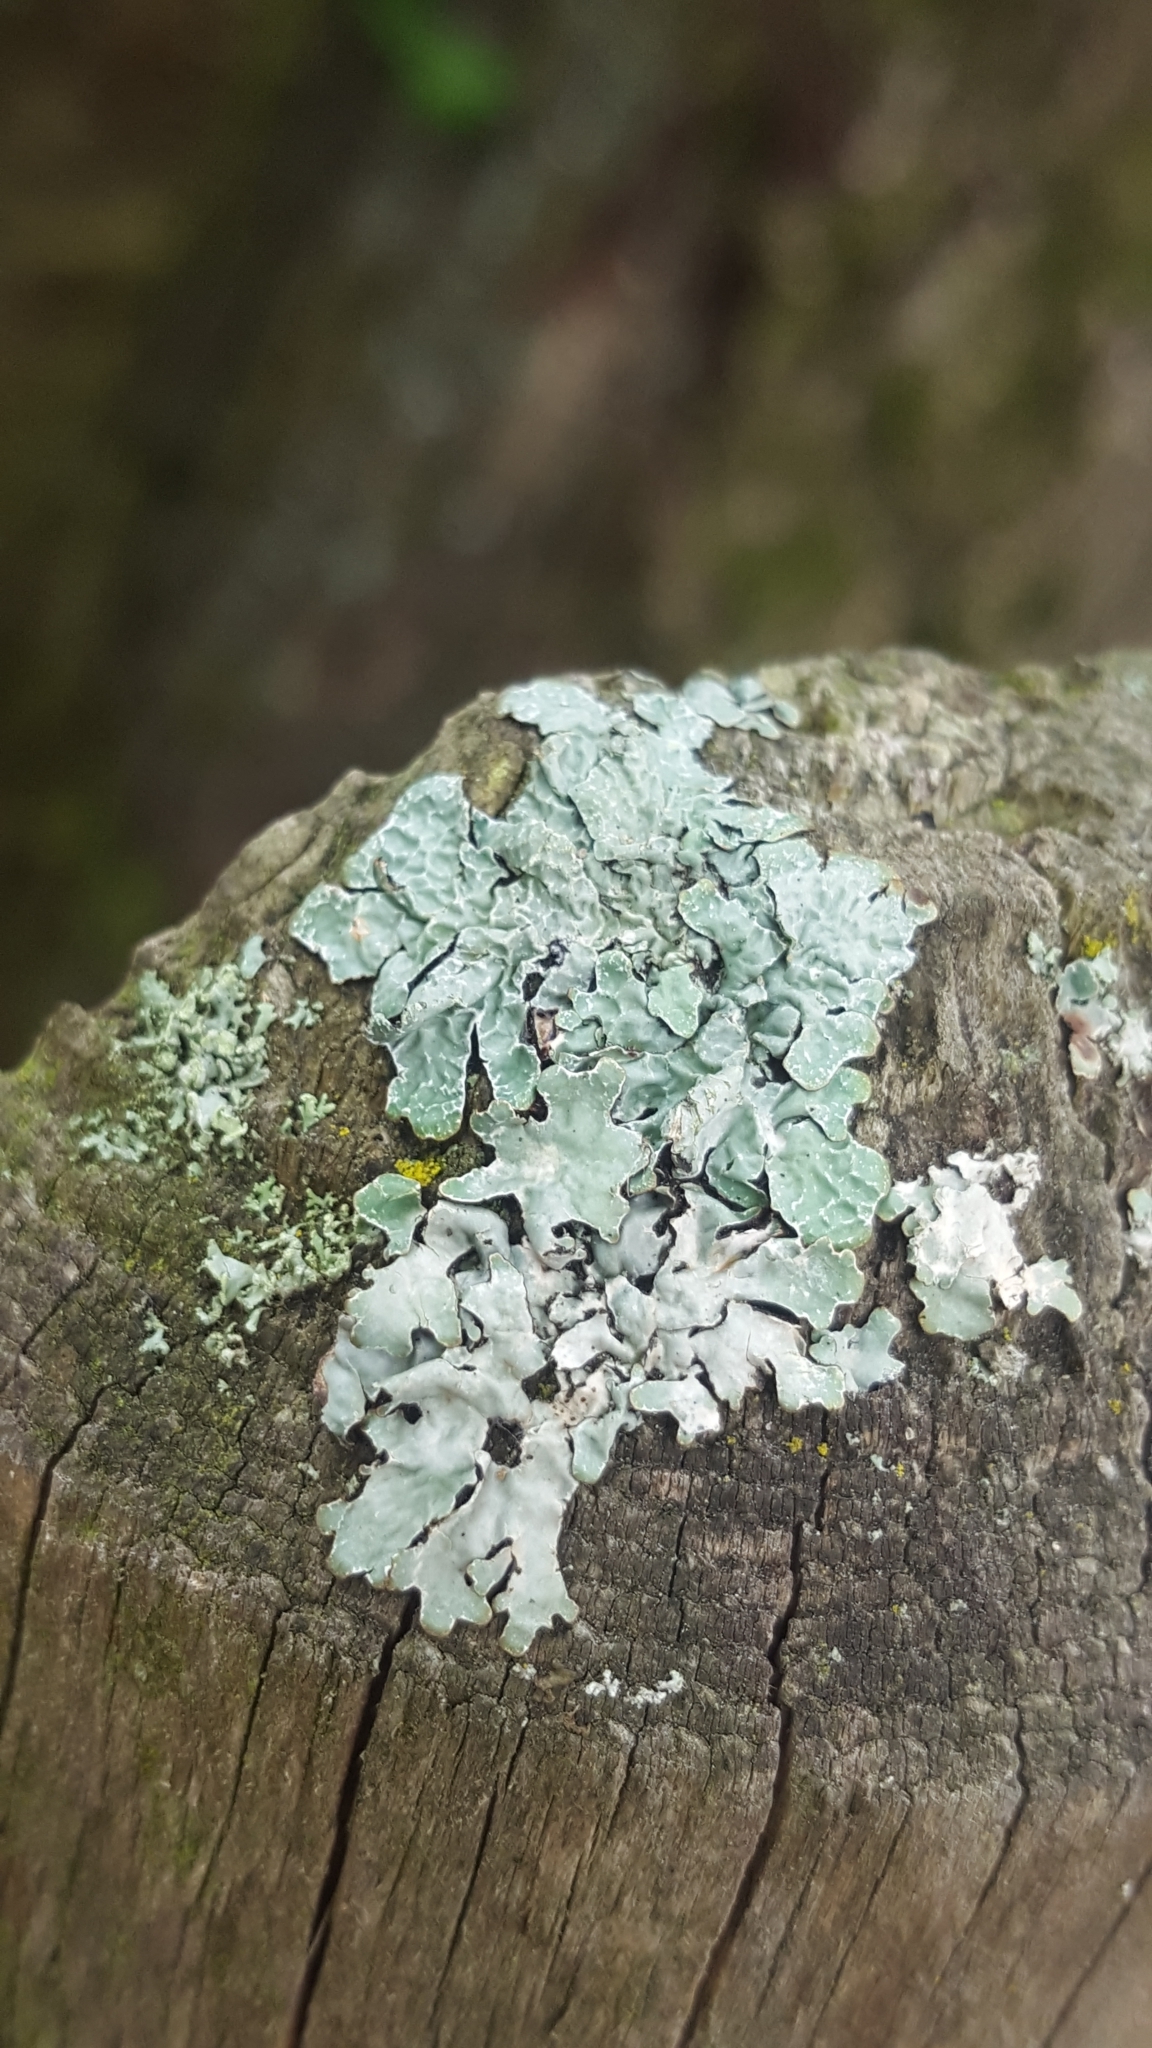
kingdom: Fungi
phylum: Ascomycota
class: Lecanoromycetes
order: Lecanorales
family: Parmeliaceae
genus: Parmelia
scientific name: Parmelia sulcata
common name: Netted shield lichen
